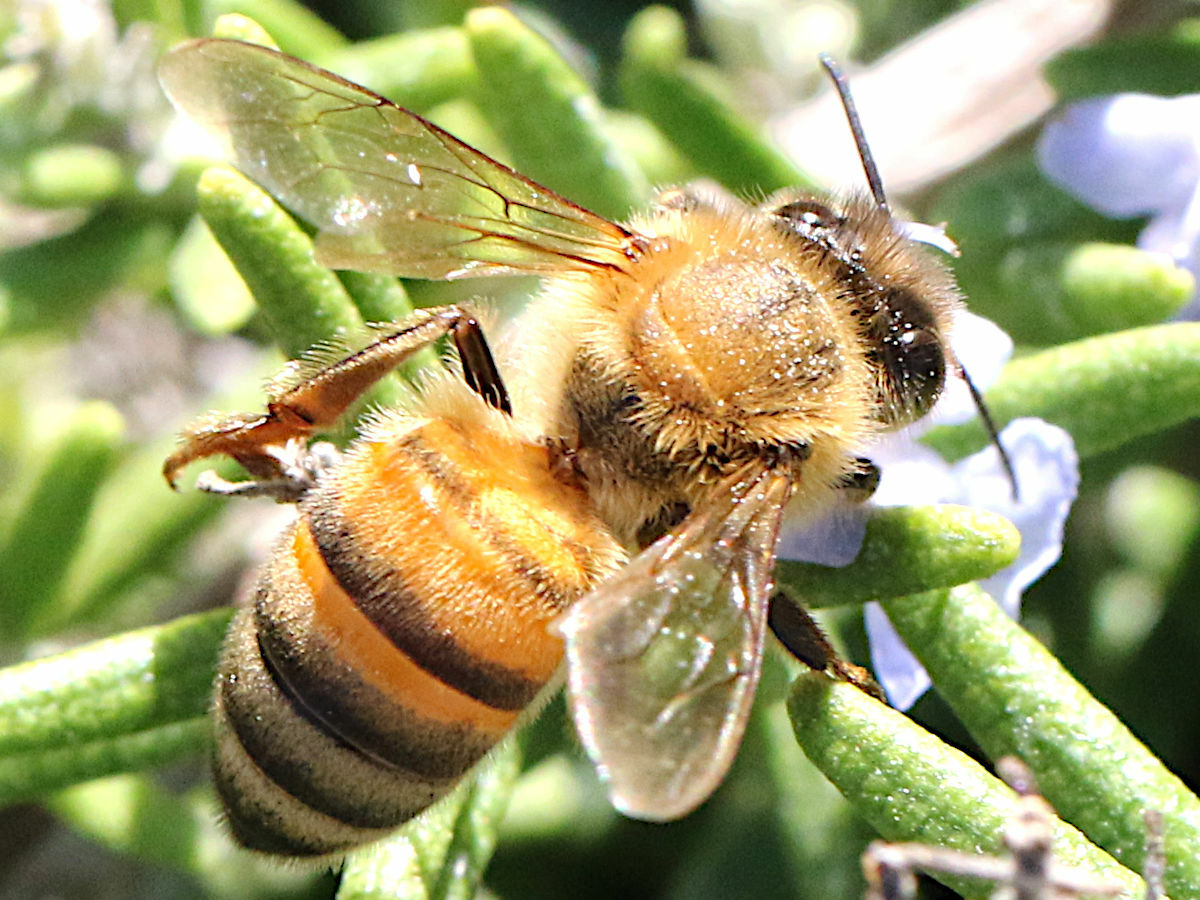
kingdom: Animalia
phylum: Arthropoda
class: Insecta
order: Hymenoptera
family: Apidae
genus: Apis
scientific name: Apis mellifera
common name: Honey bee
